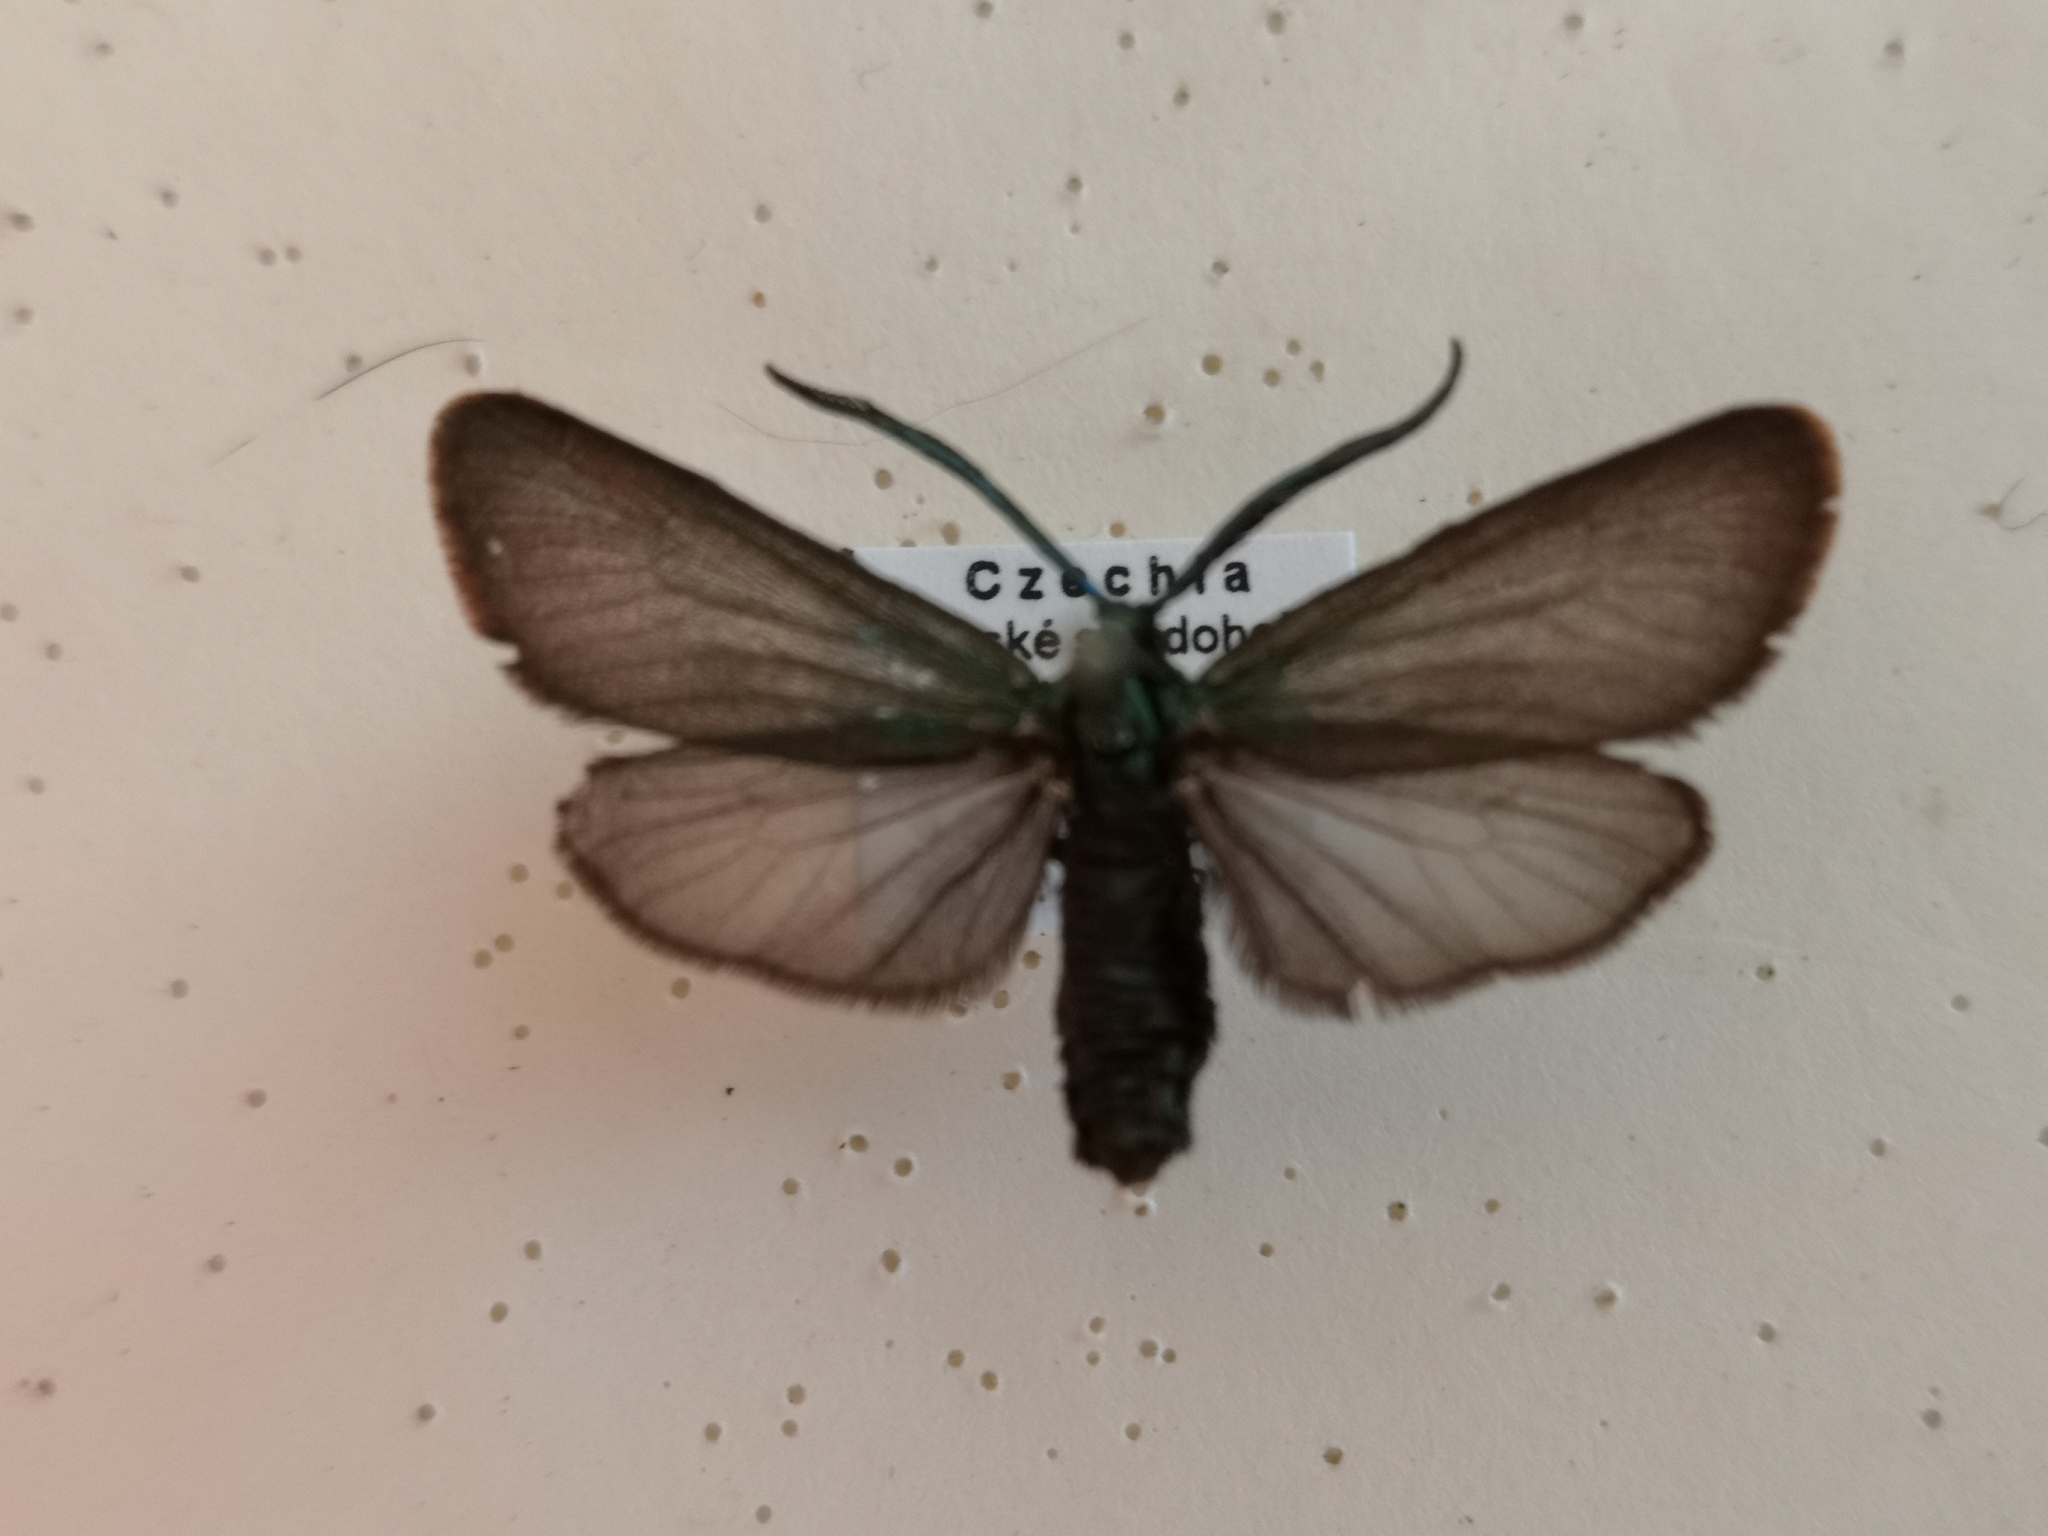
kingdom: Animalia
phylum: Arthropoda
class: Insecta
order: Lepidoptera
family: Zygaenidae
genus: Rhagades
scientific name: Rhagades pruni
